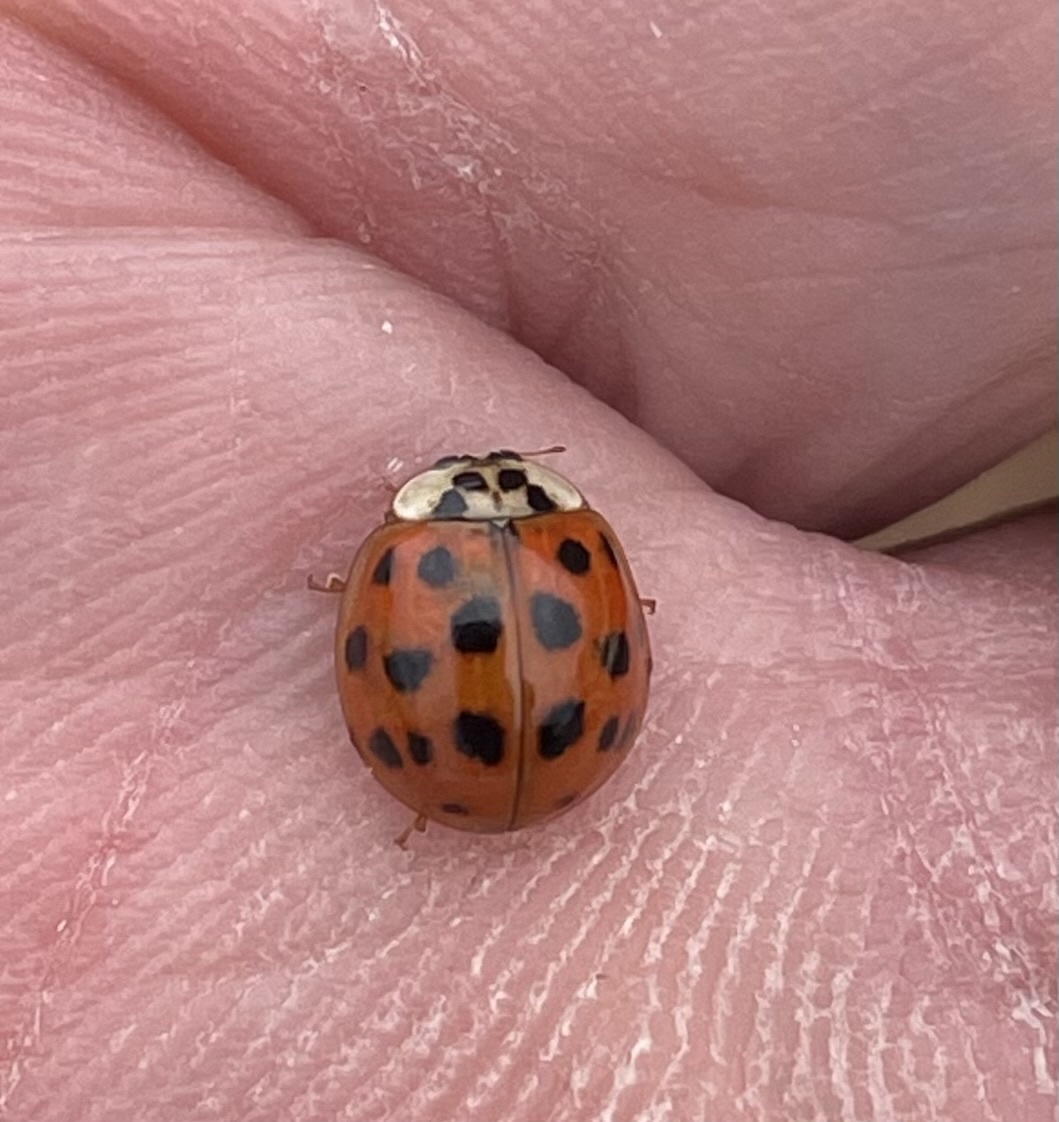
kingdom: Animalia
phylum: Arthropoda
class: Insecta
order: Coleoptera
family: Coccinellidae
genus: Harmonia
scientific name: Harmonia axyridis
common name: Harlequin ladybird
